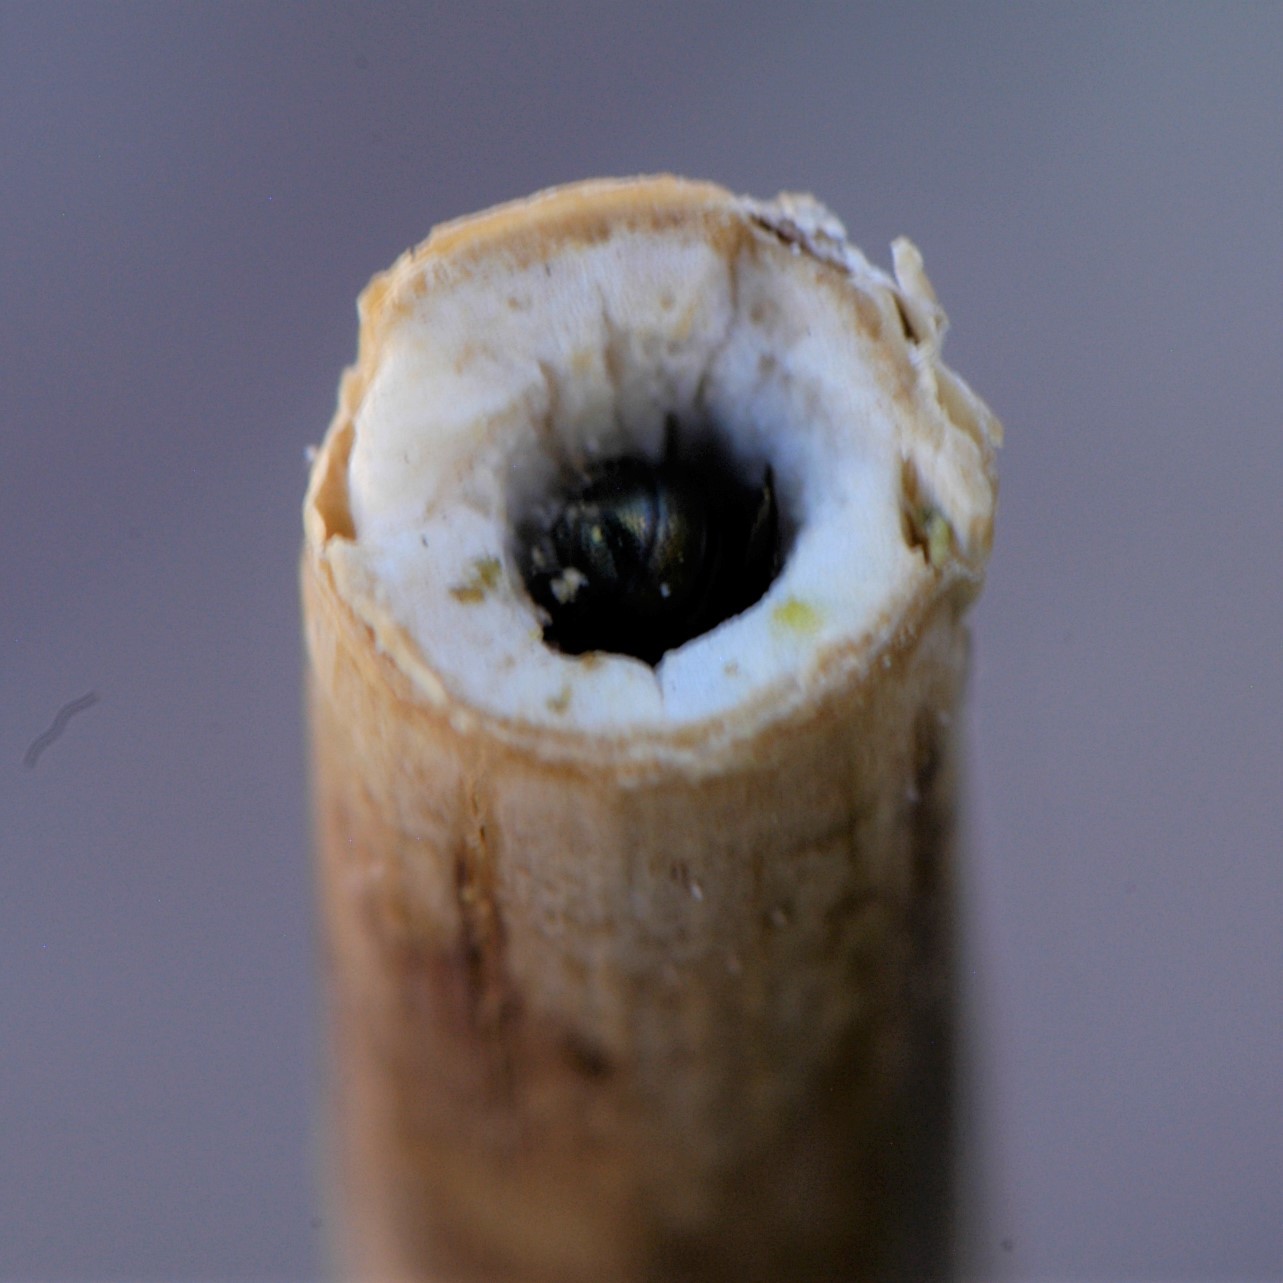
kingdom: Animalia
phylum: Arthropoda
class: Insecta
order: Hymenoptera
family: Apidae
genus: Zadontomerus
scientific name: Zadontomerus
